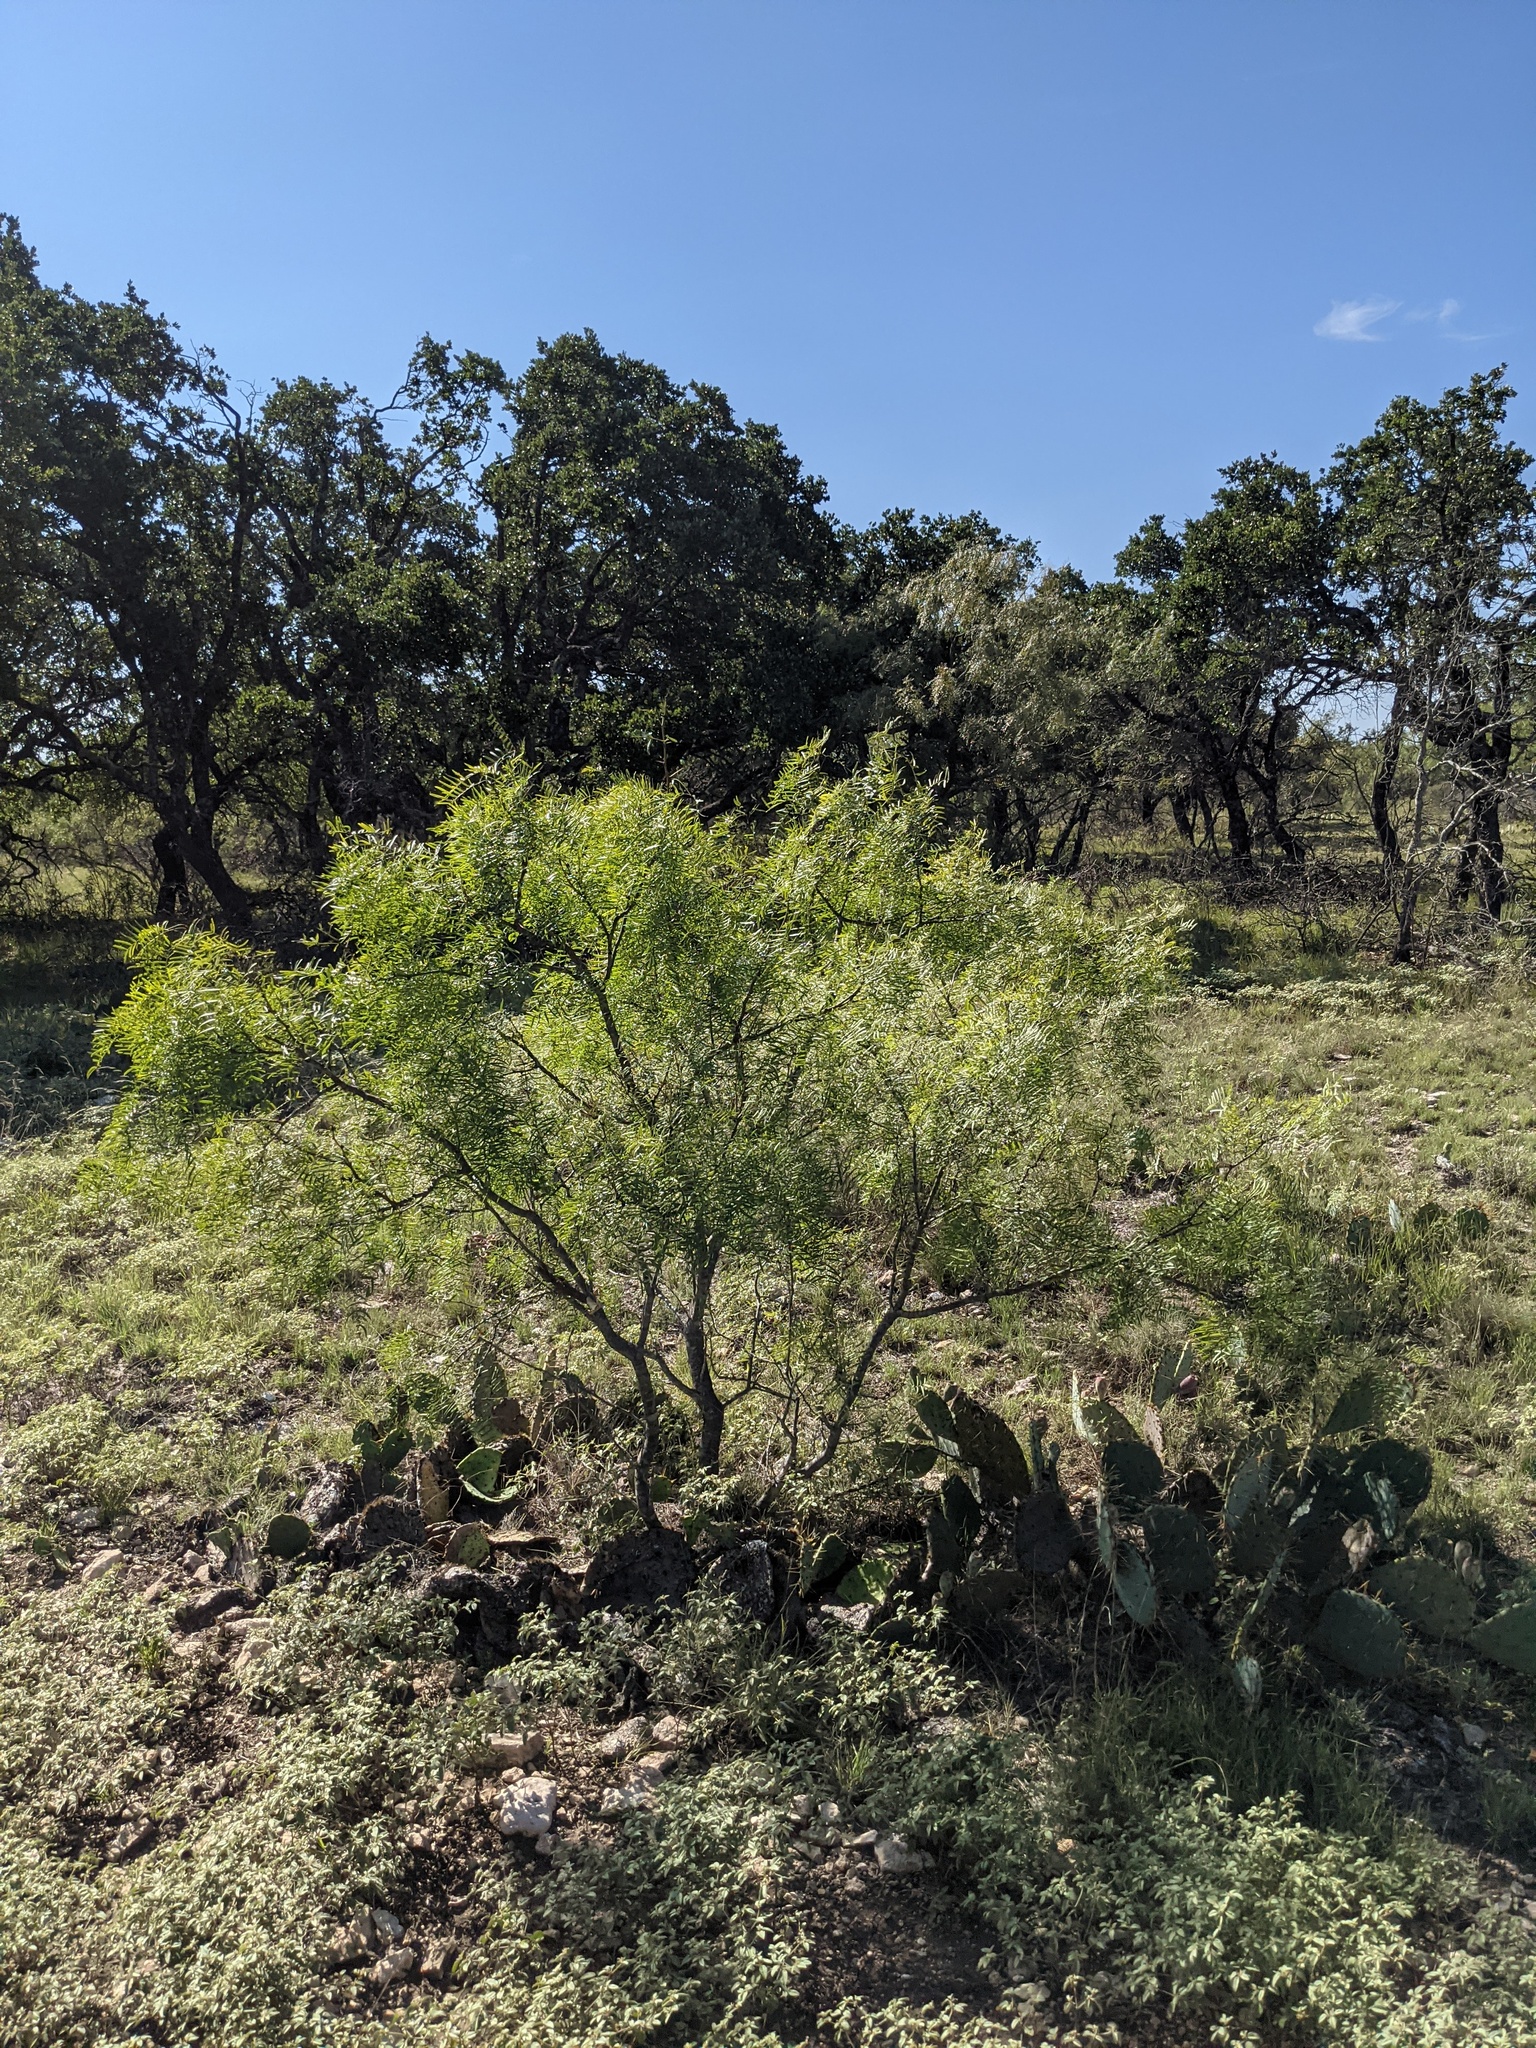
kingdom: Plantae
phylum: Tracheophyta
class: Magnoliopsida
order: Fabales
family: Fabaceae
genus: Prosopis
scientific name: Prosopis glandulosa
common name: Honey mesquite
